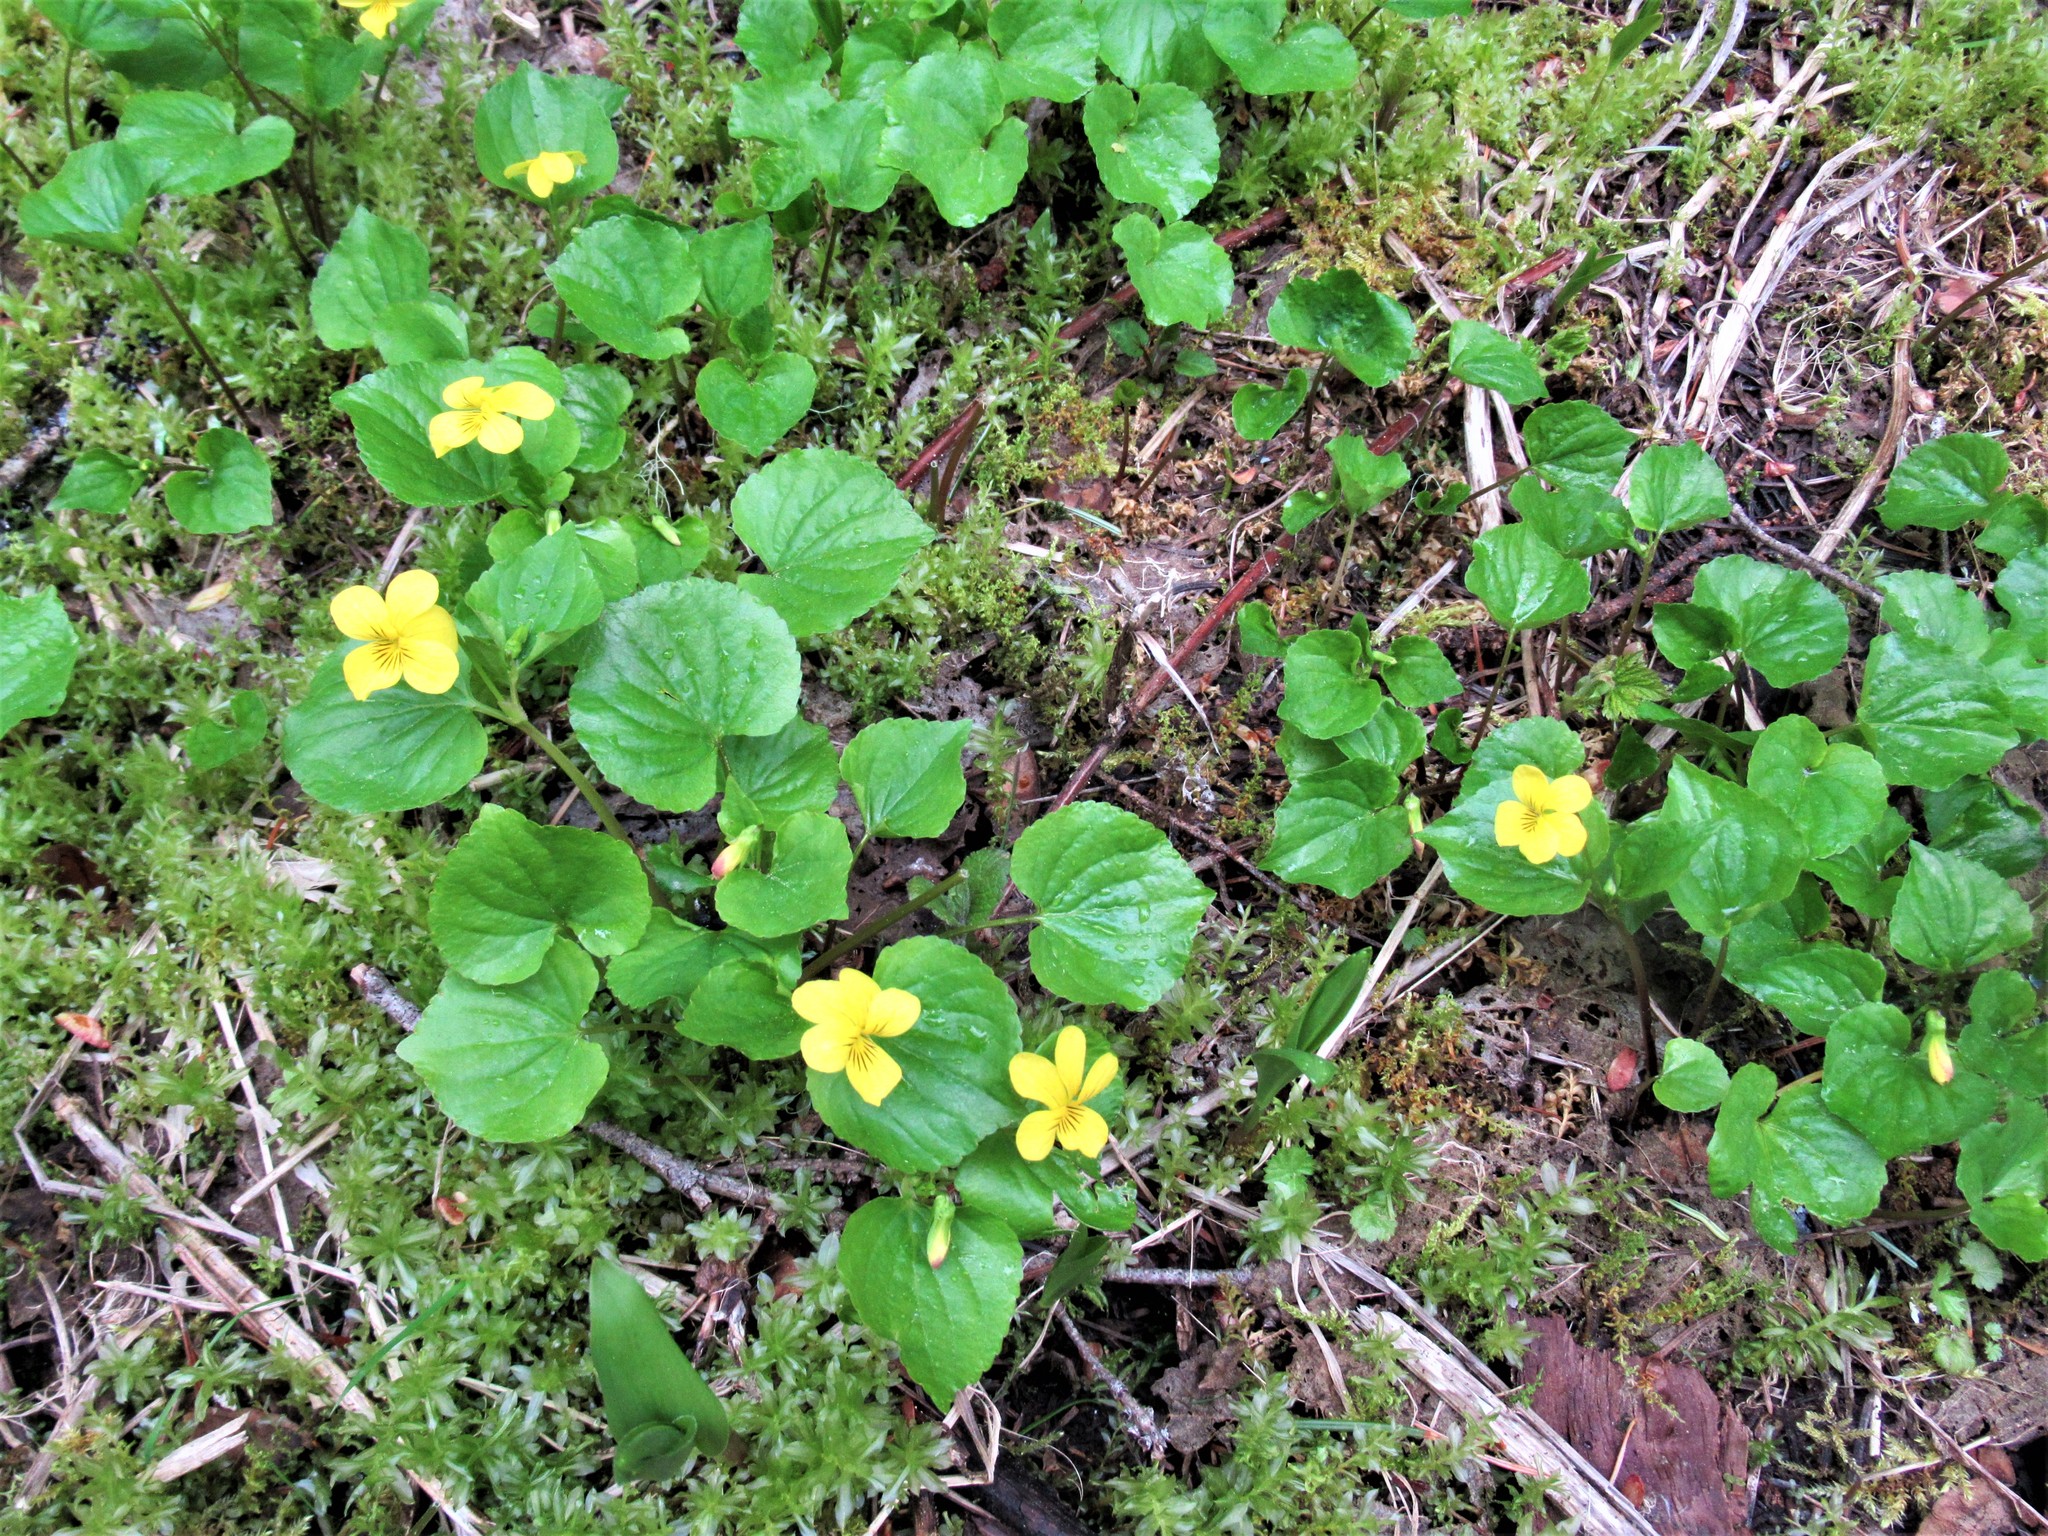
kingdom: Plantae
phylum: Tracheophyta
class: Magnoliopsida
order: Malpighiales
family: Violaceae
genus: Viola
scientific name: Viola glabella
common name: Stream violet
